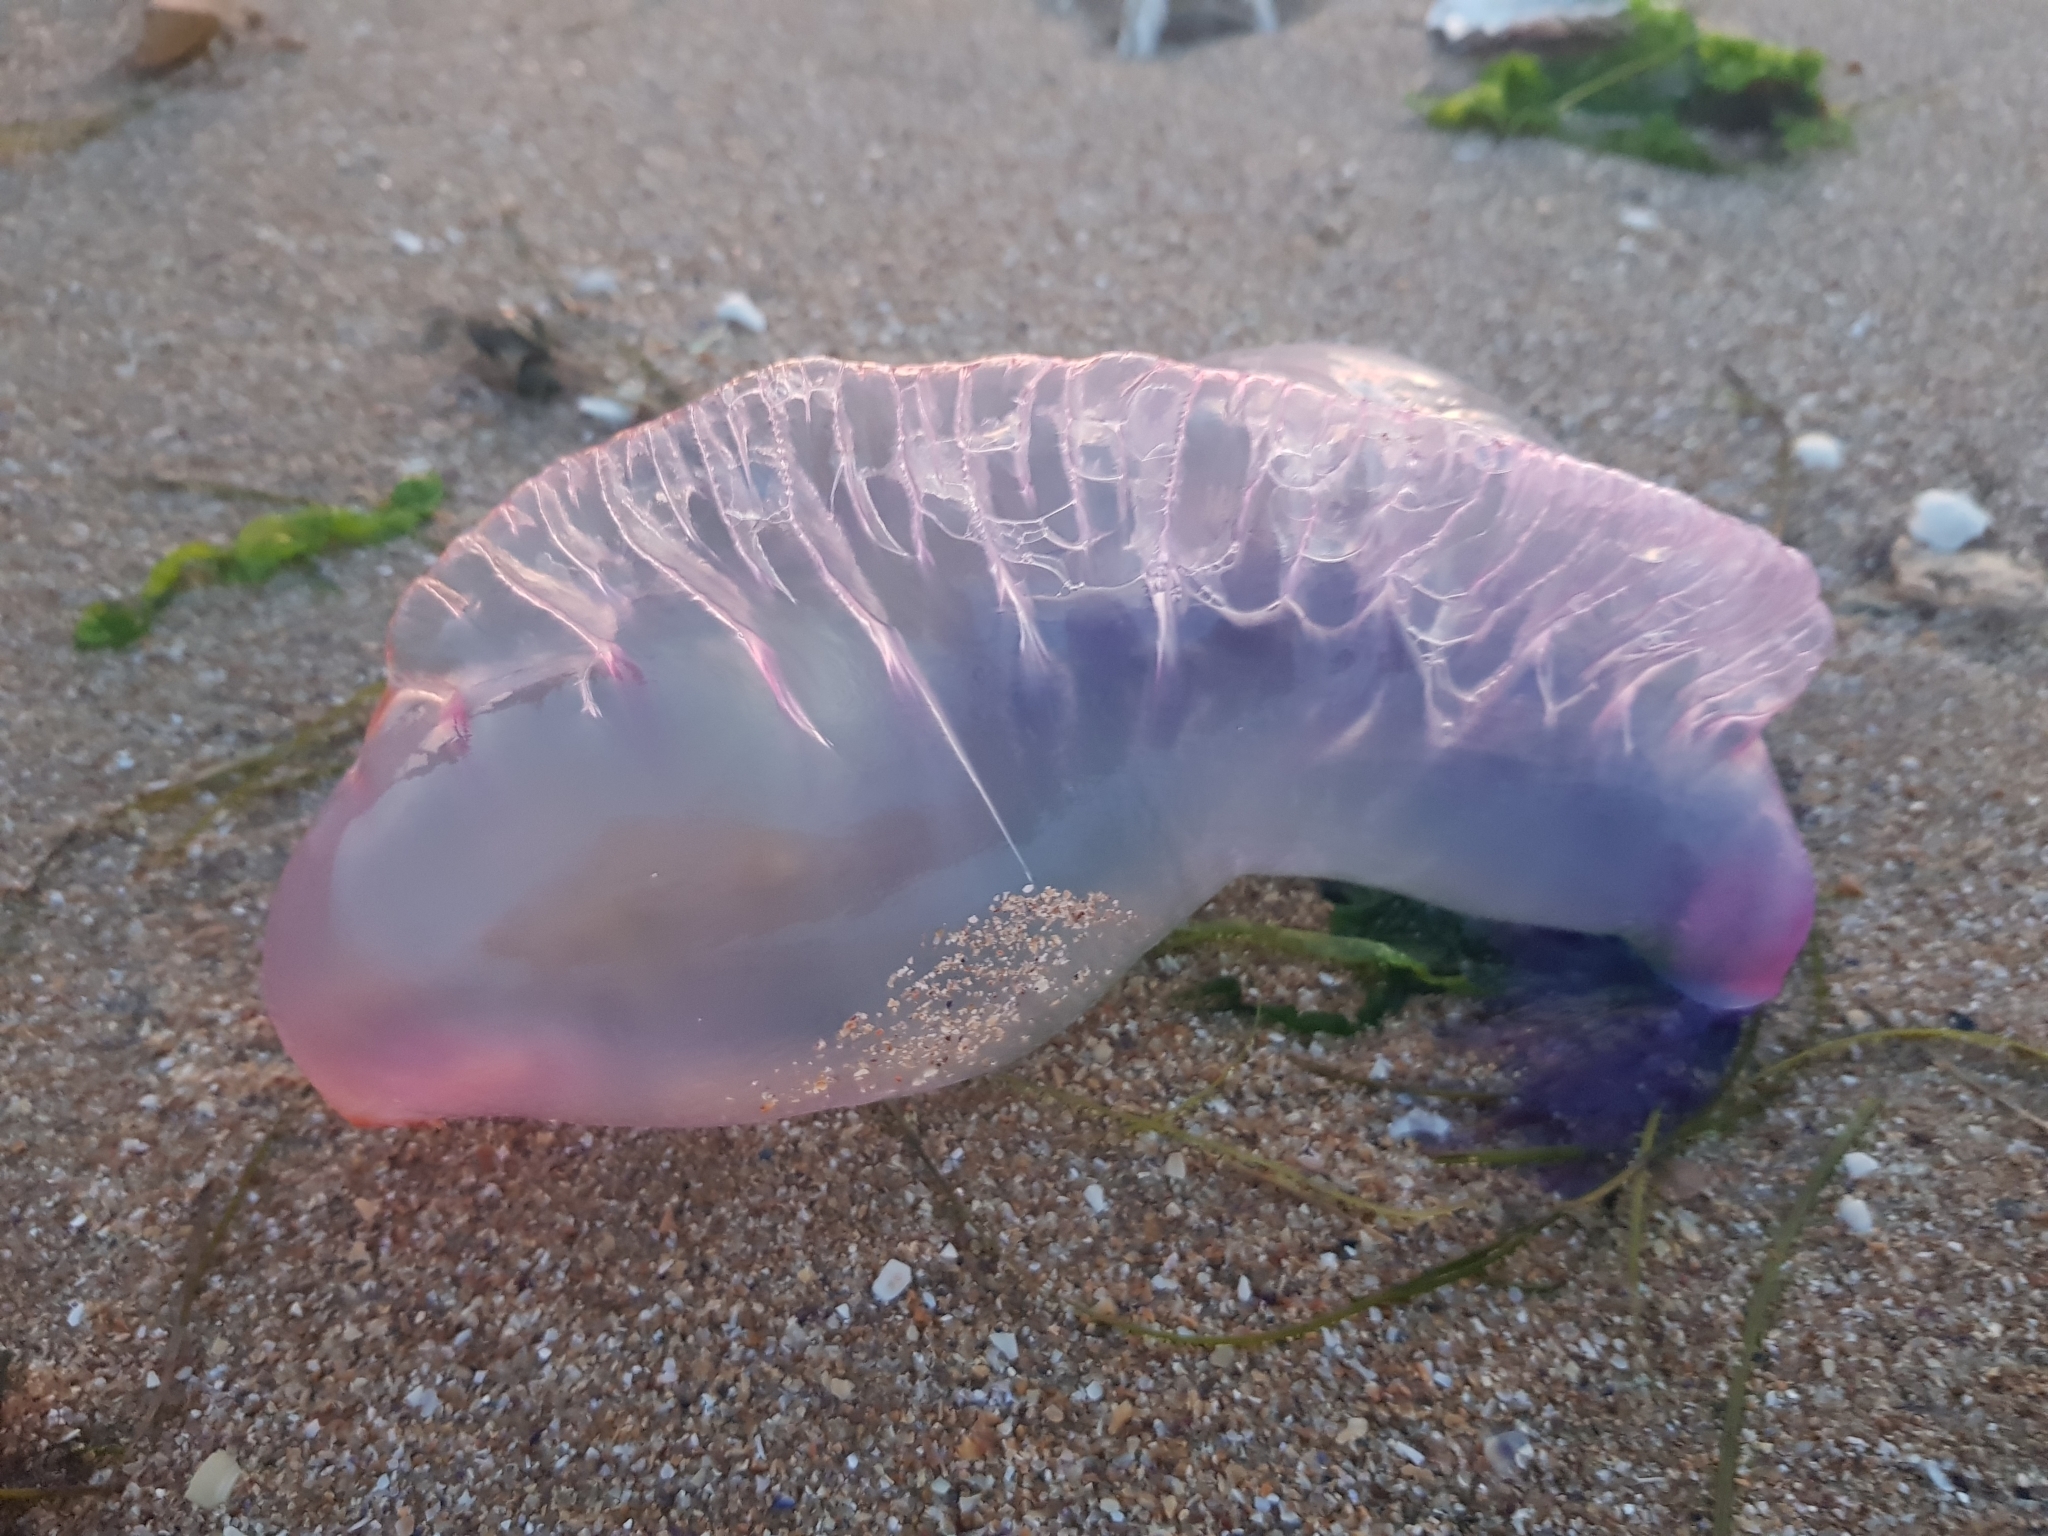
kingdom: Animalia
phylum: Cnidaria
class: Hydrozoa
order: Siphonophorae
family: Physaliidae
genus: Physalia
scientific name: Physalia physalis
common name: Portuguese man-of-war
